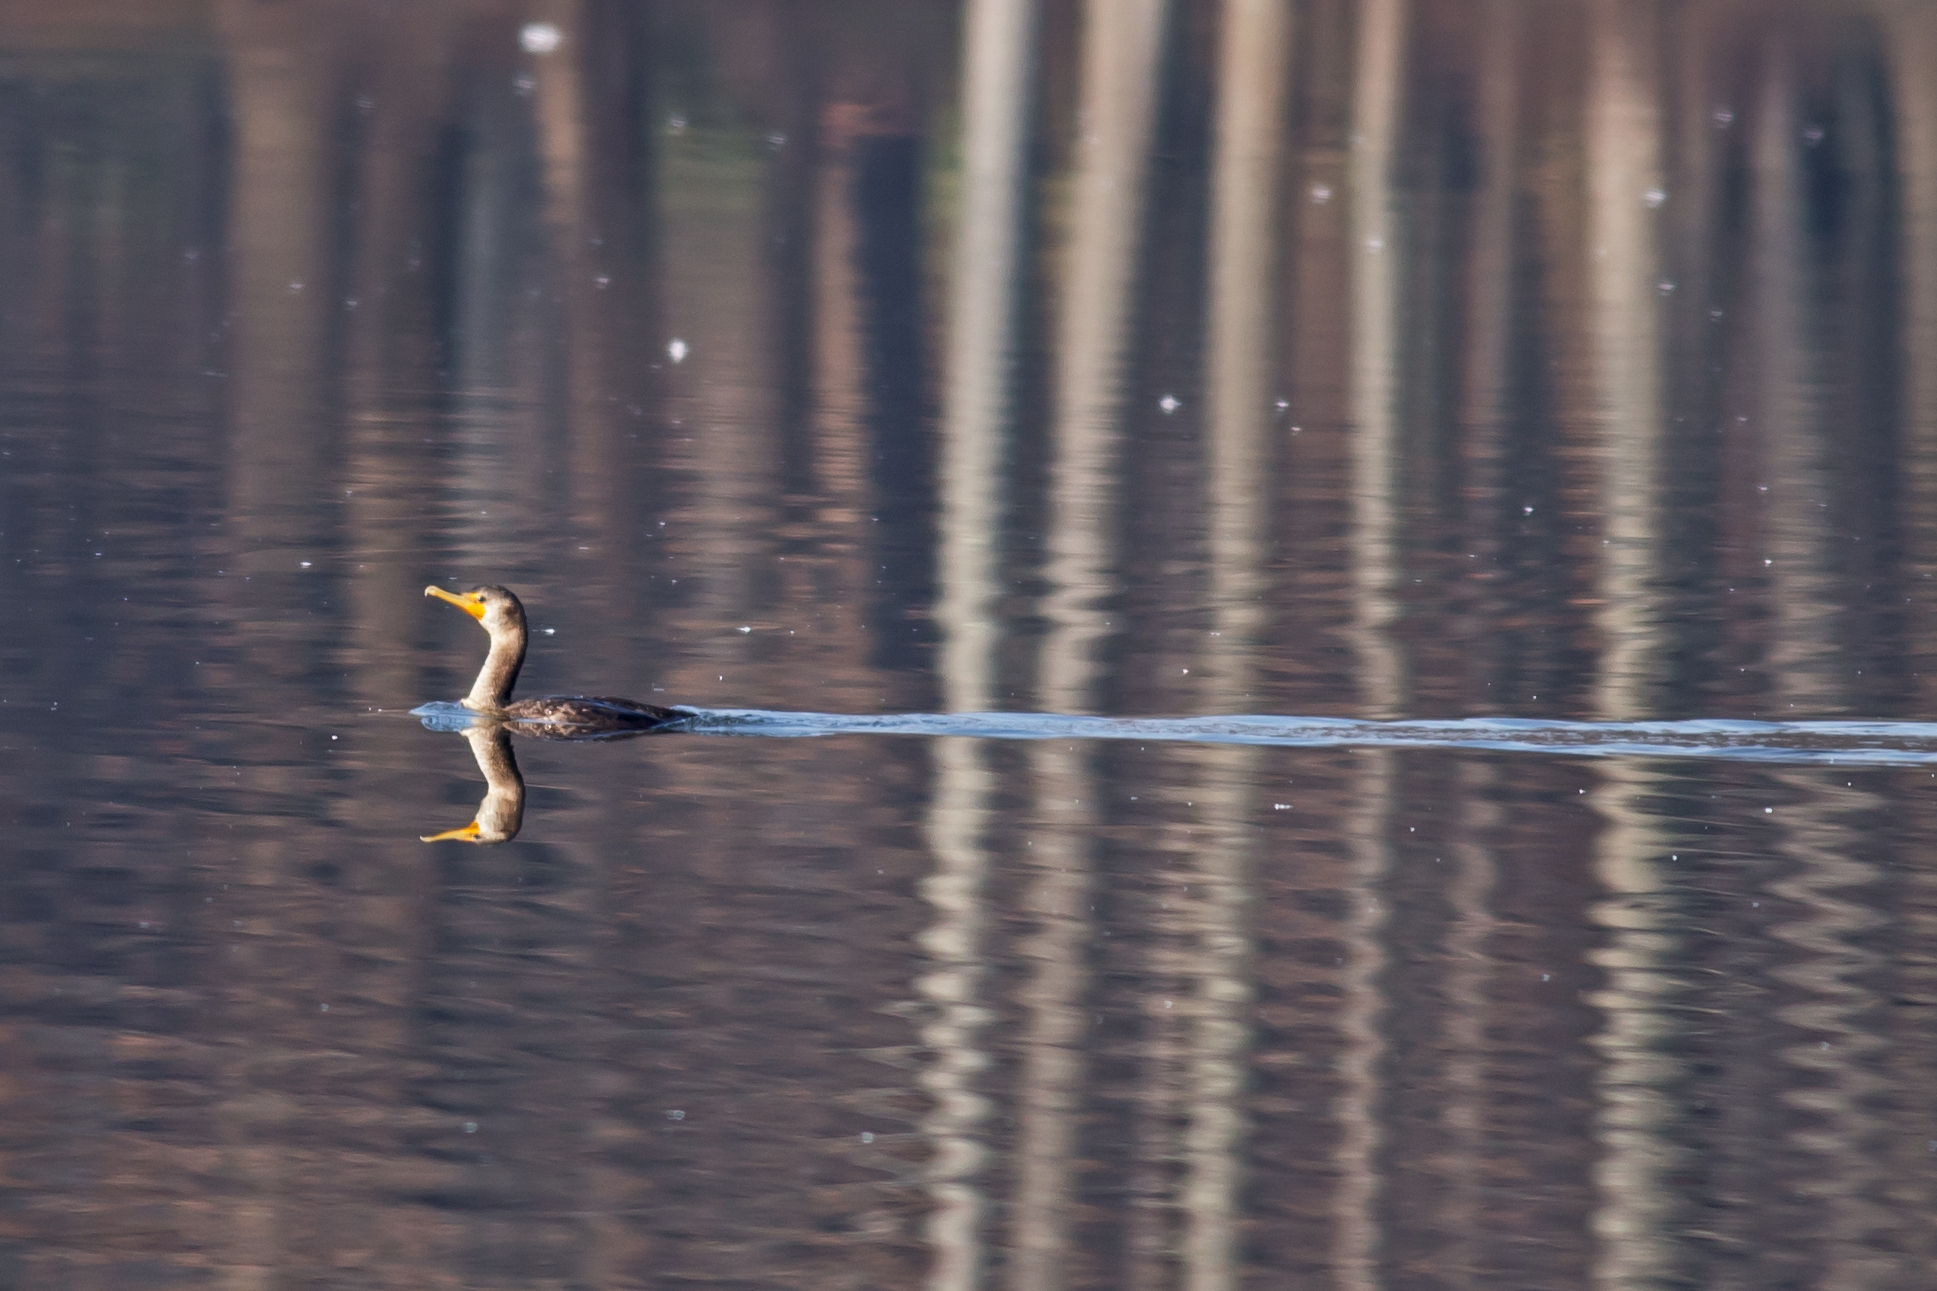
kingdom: Animalia
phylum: Chordata
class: Aves
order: Suliformes
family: Phalacrocoracidae
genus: Phalacrocorax
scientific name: Phalacrocorax auritus
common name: Double-crested cormorant
